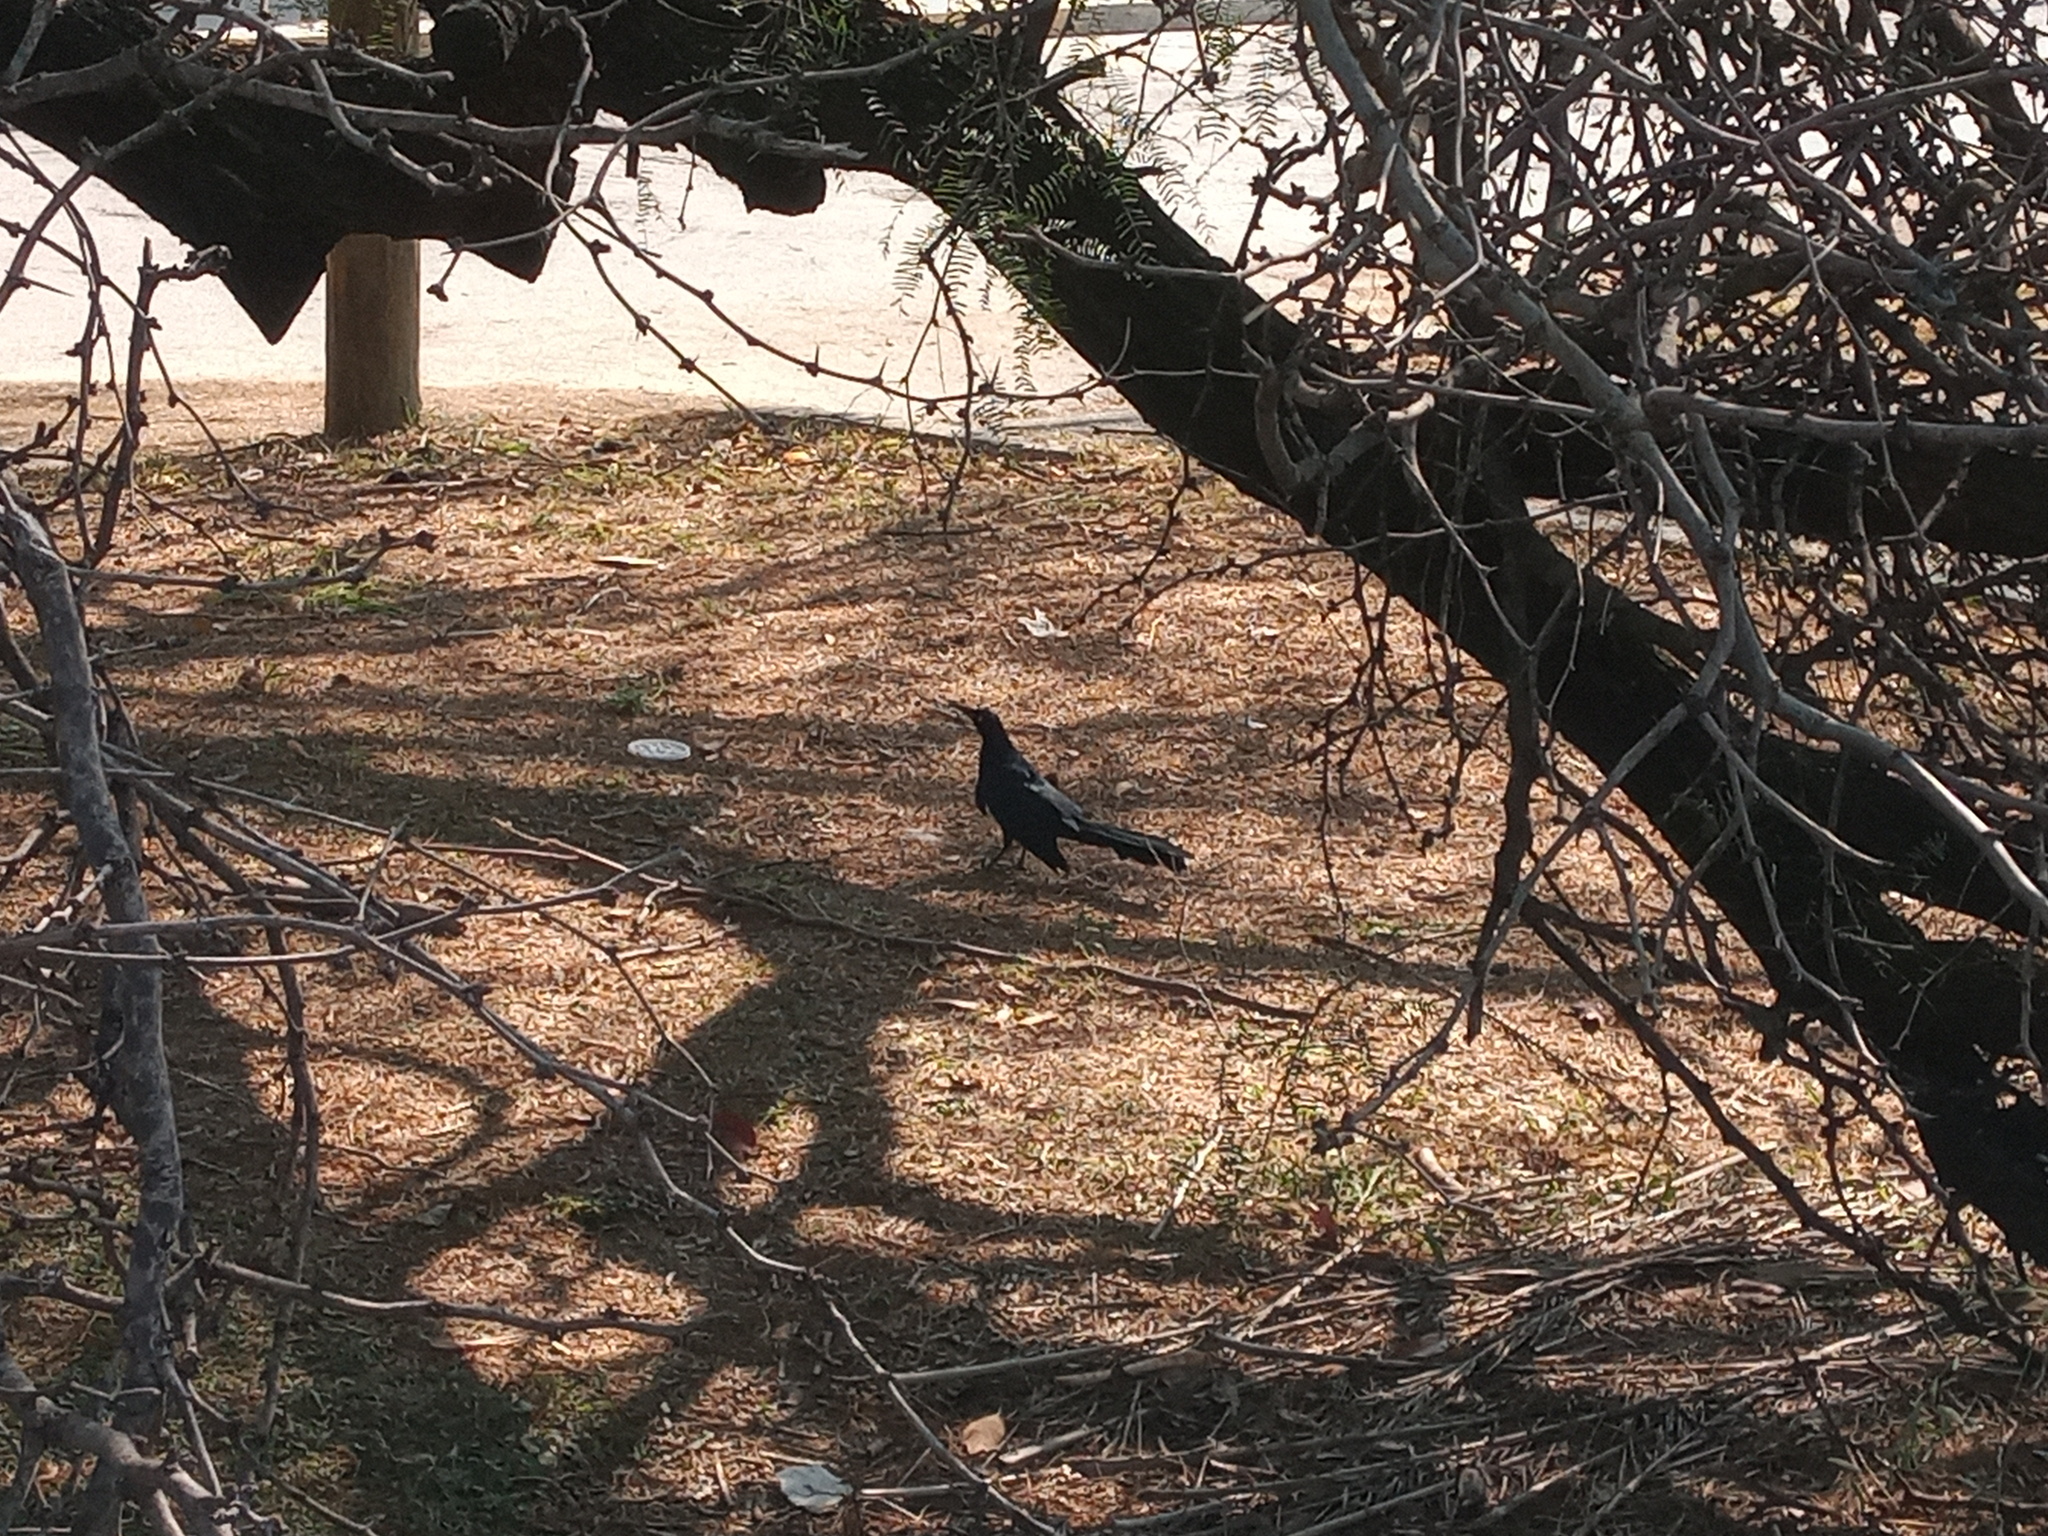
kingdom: Animalia
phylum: Chordata
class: Aves
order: Passeriformes
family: Icteridae
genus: Quiscalus
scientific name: Quiscalus mexicanus
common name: Great-tailed grackle
